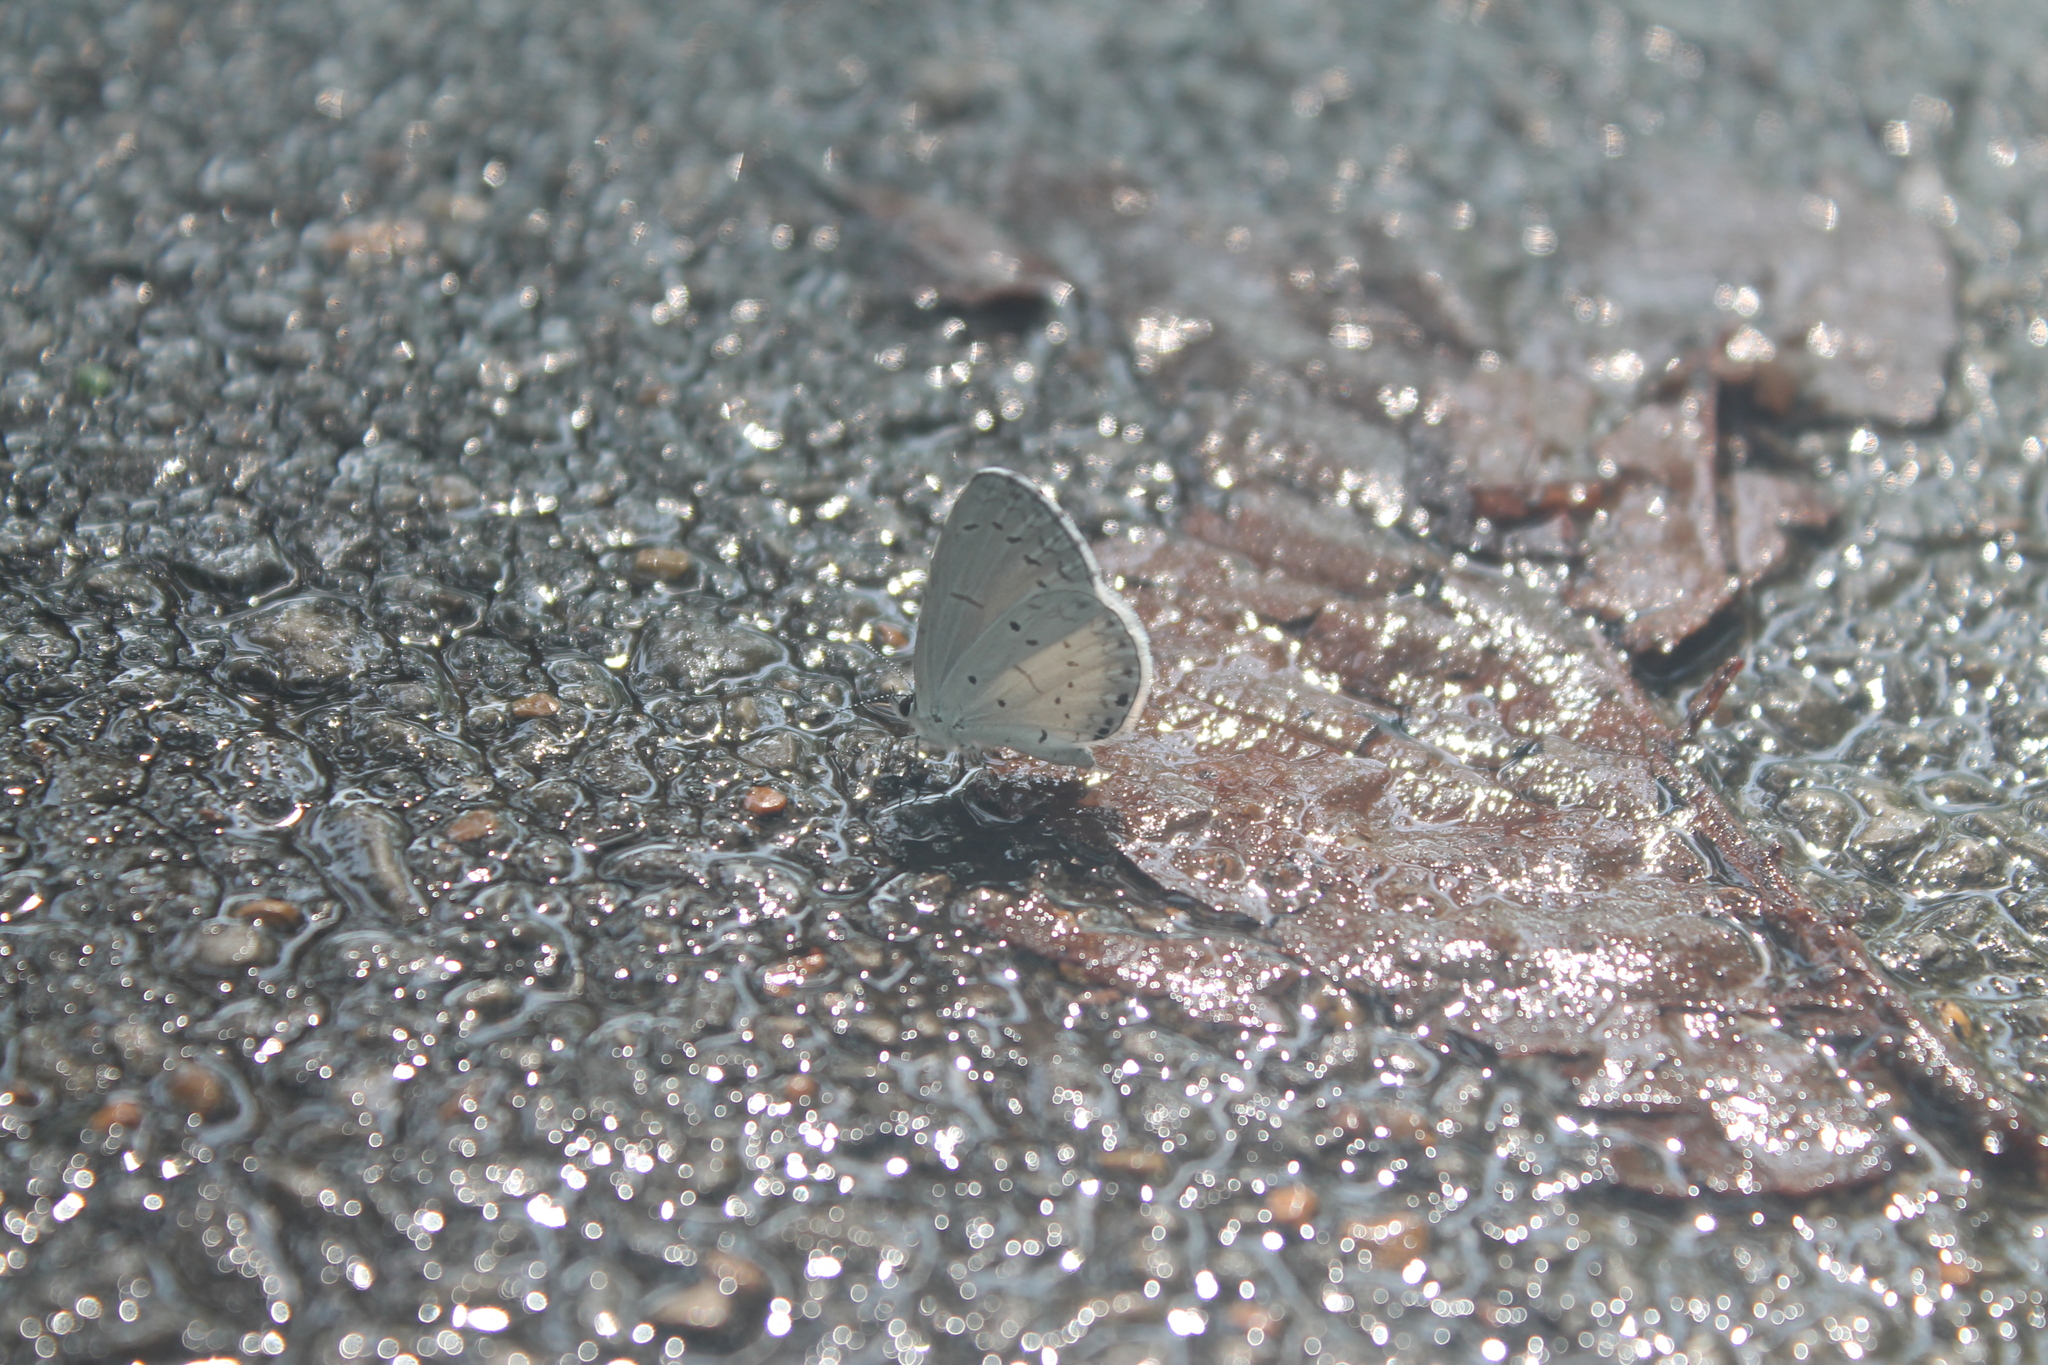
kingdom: Animalia
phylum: Arthropoda
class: Insecta
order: Lepidoptera
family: Lycaenidae
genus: Cyaniris
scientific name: Cyaniris neglecta
